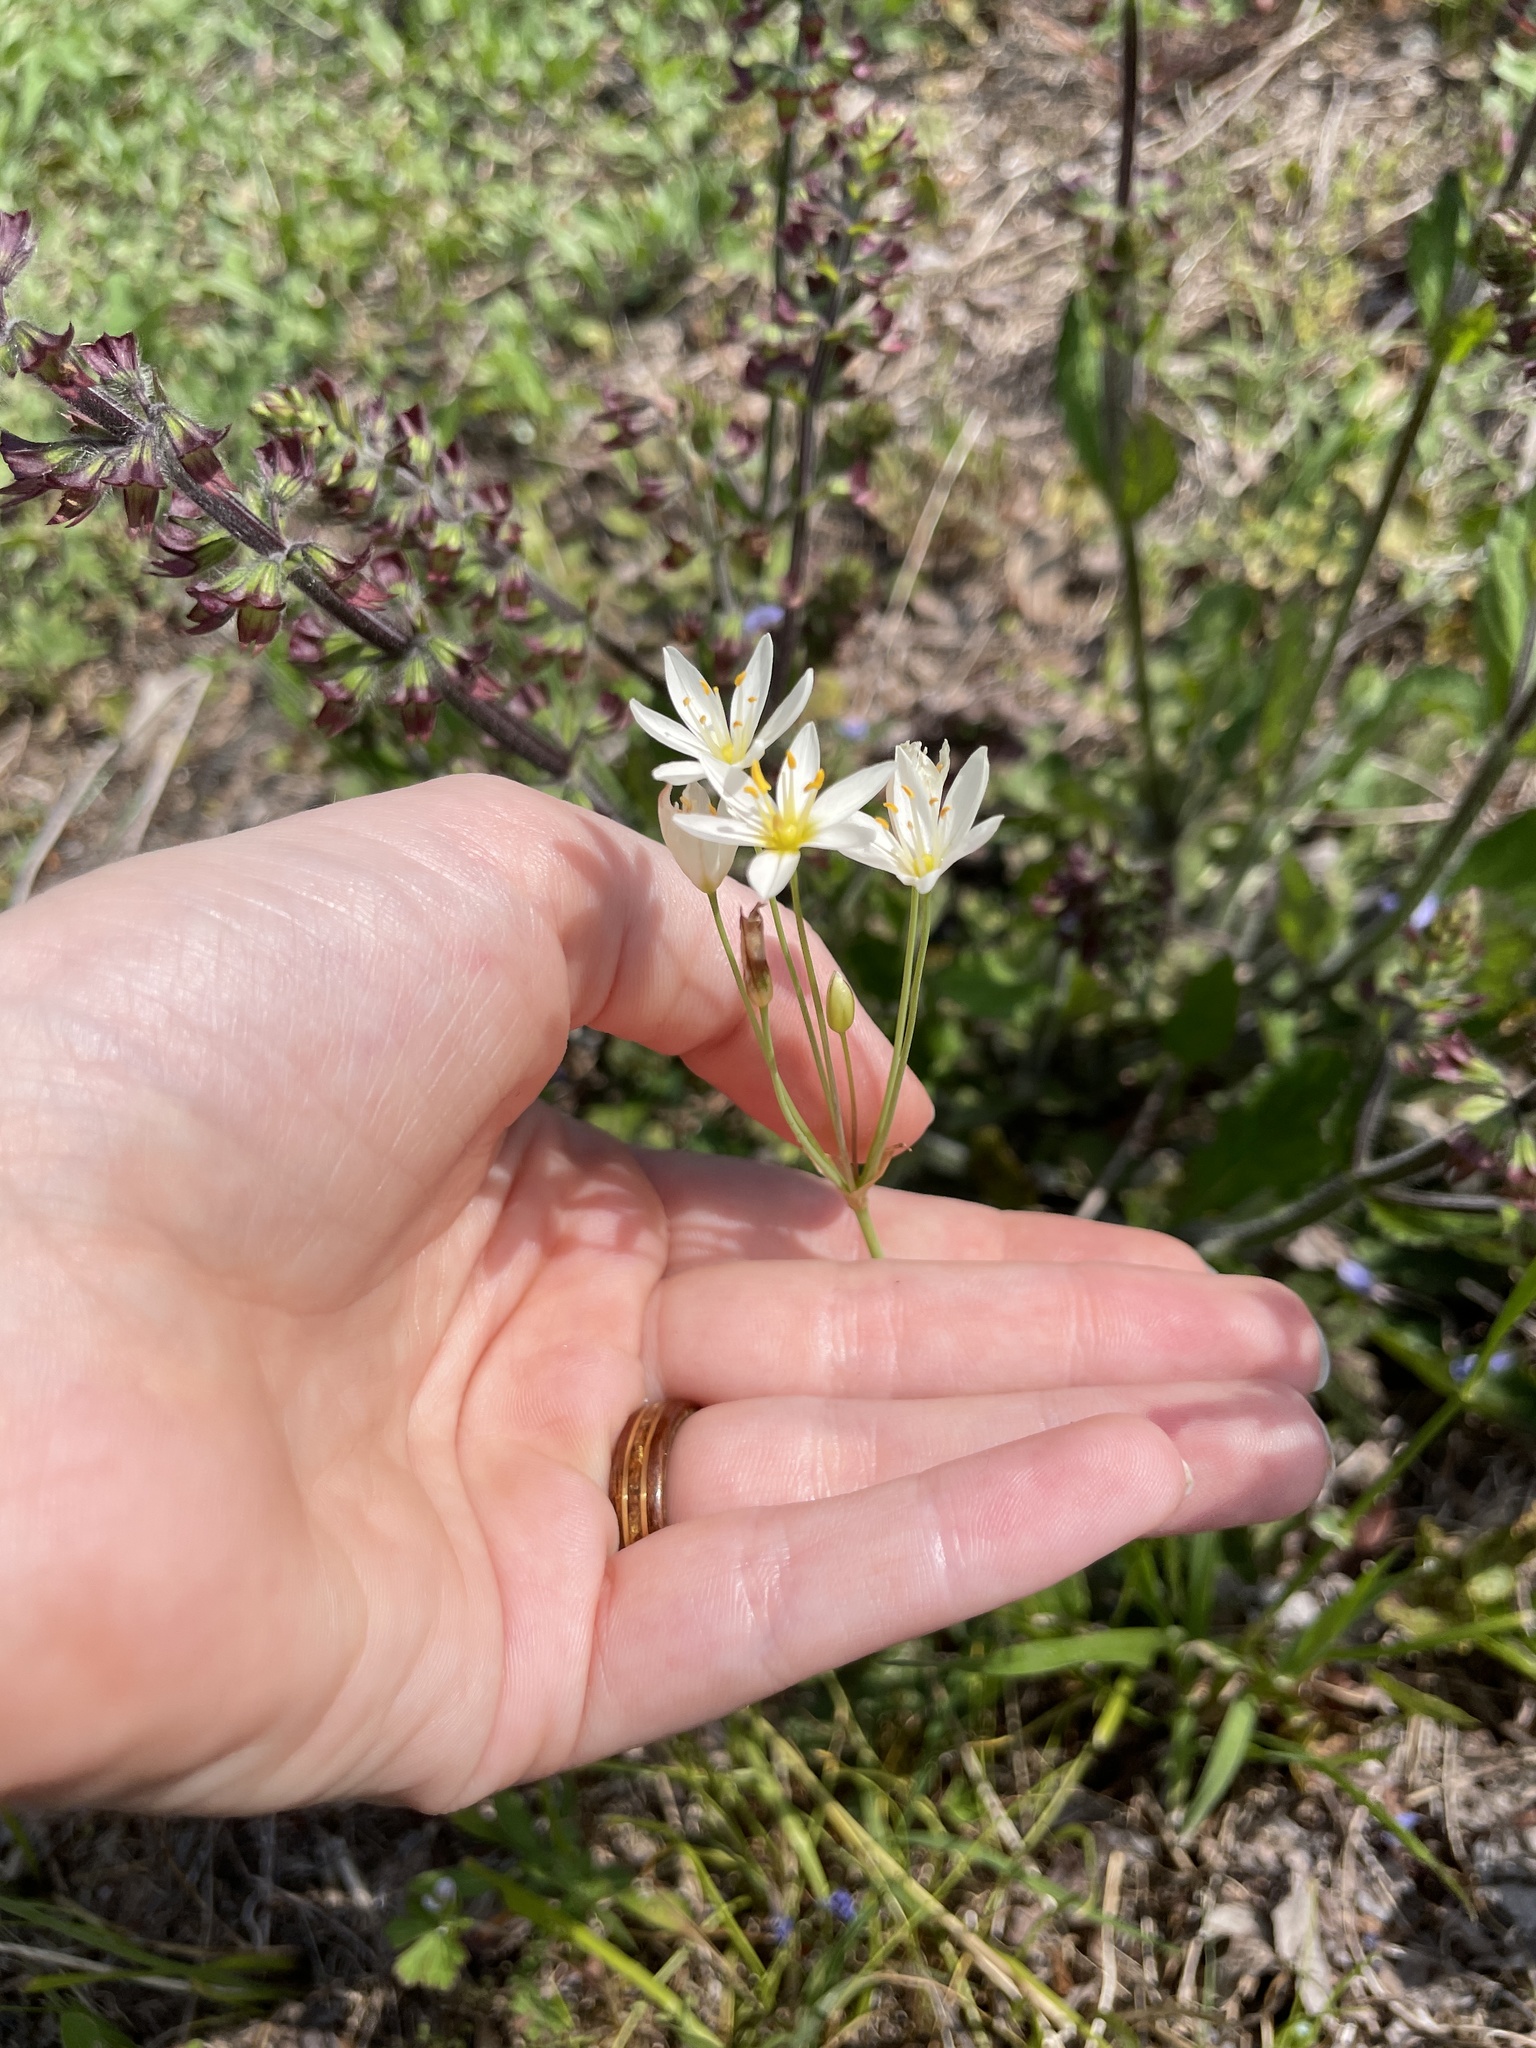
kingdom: Plantae
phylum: Tracheophyta
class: Liliopsida
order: Asparagales
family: Amaryllidaceae
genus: Nothoscordum
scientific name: Nothoscordum bivalve
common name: Crow-poison
